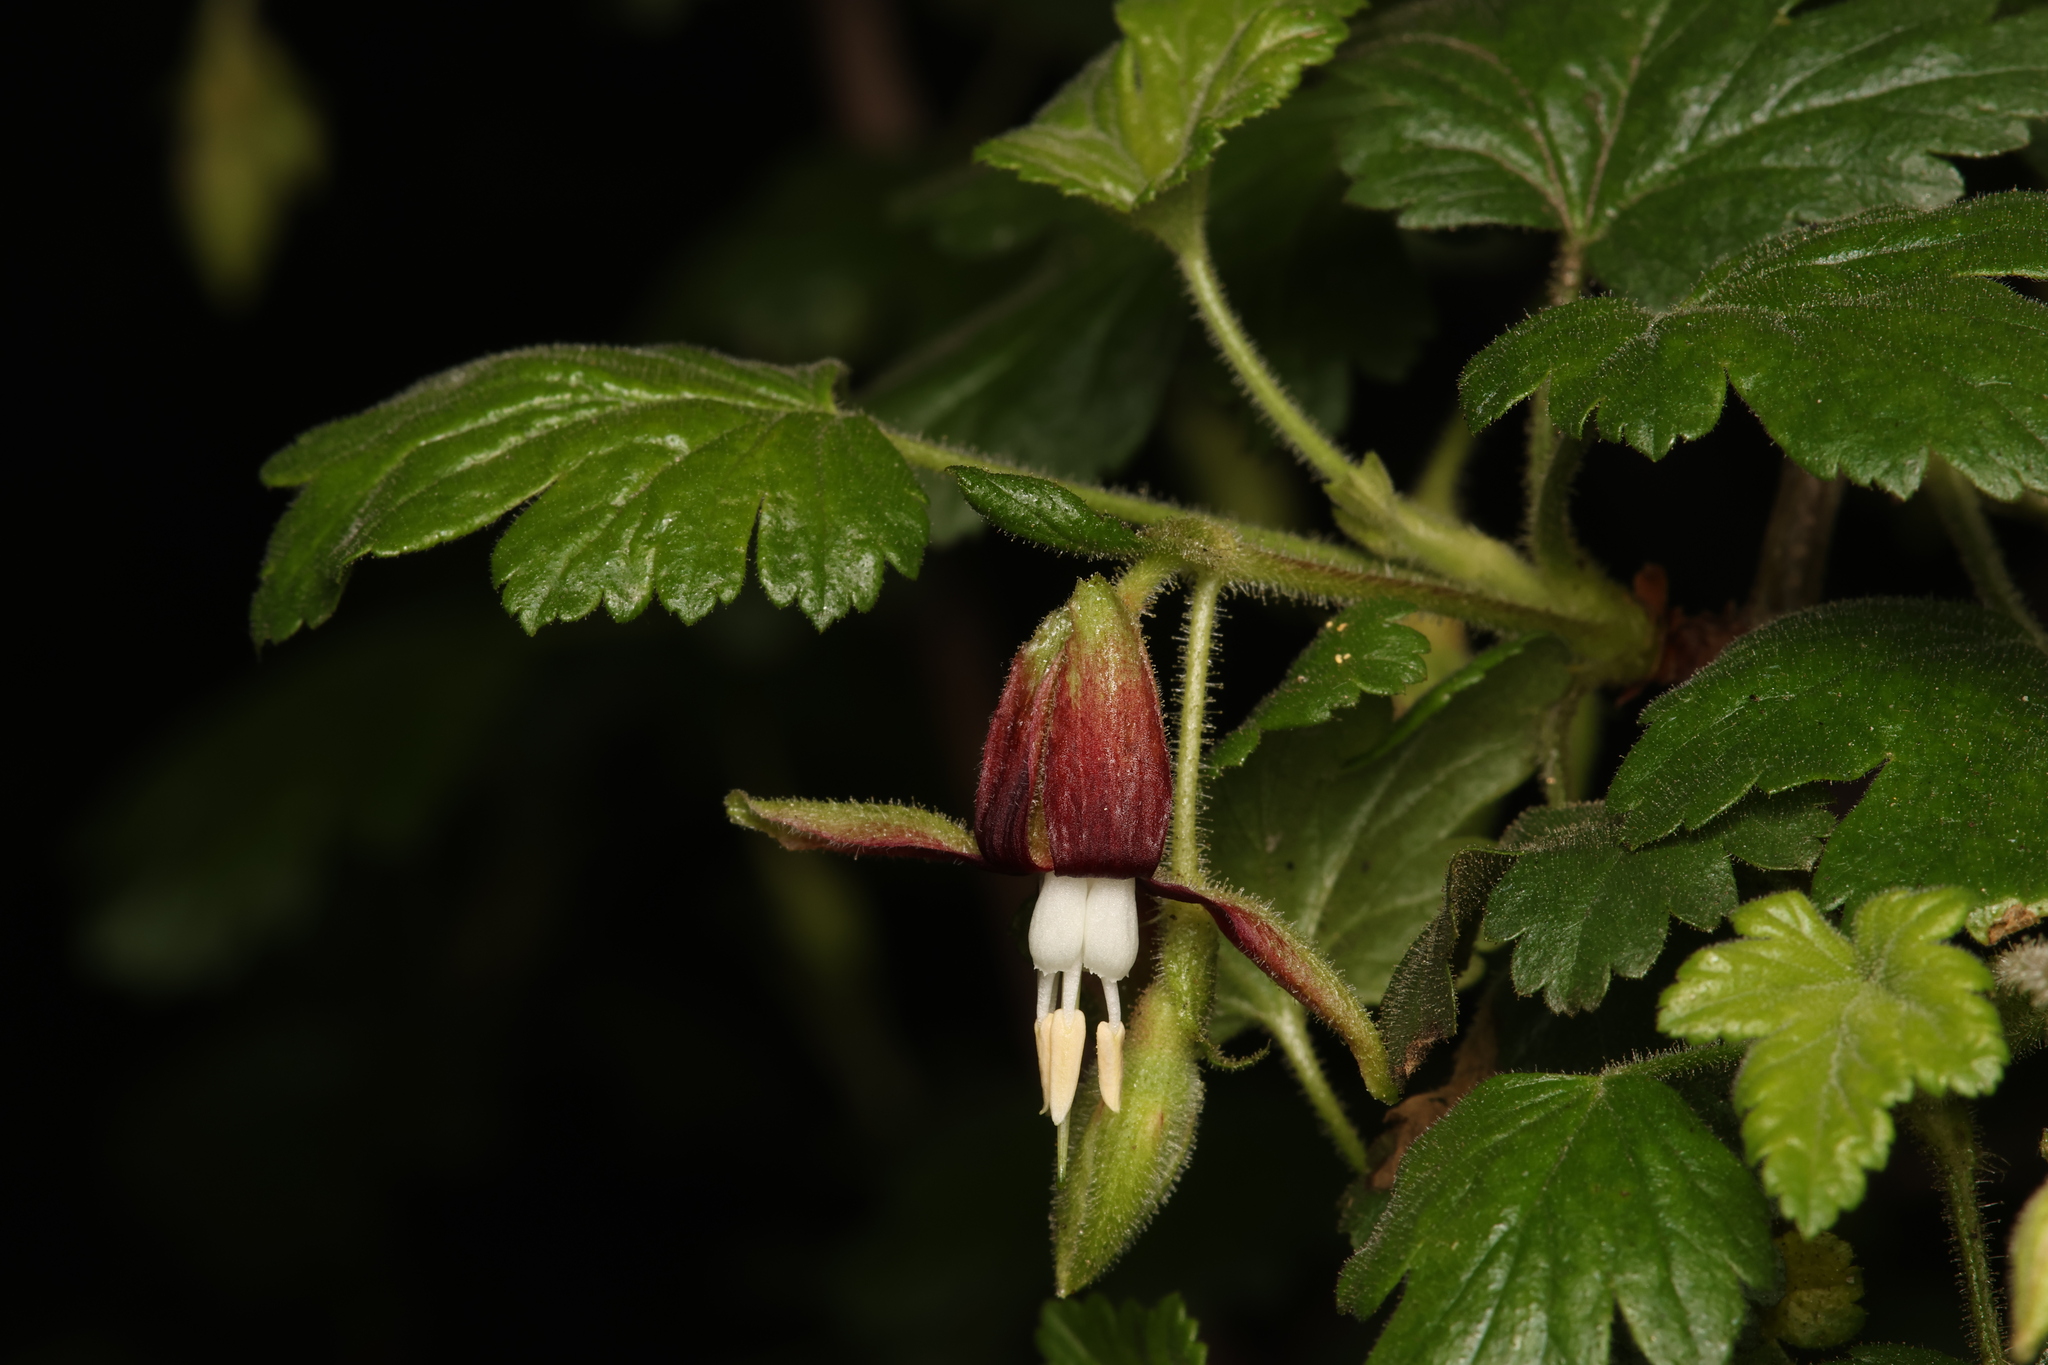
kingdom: Plantae
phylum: Tracheophyta
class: Magnoliopsida
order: Saxifragales
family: Grossulariaceae
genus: Ribes
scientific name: Ribes menziesii
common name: Canyon gooseberry
